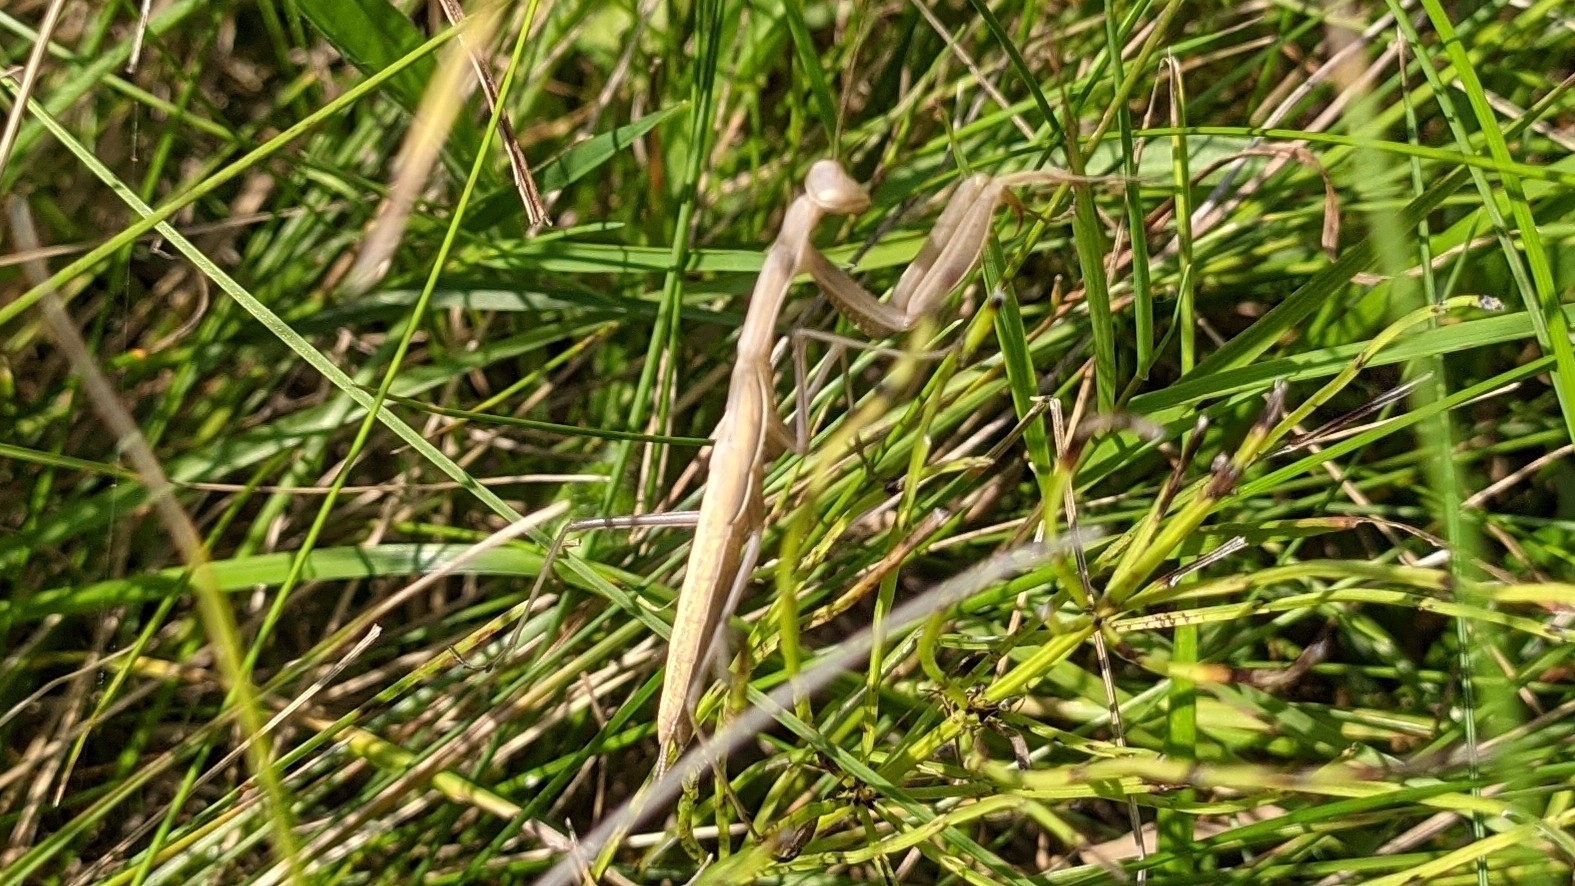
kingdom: Animalia
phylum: Arthropoda
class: Insecta
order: Mantodea
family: Mantidae
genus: Mantis
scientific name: Mantis religiosa
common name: Praying mantis
